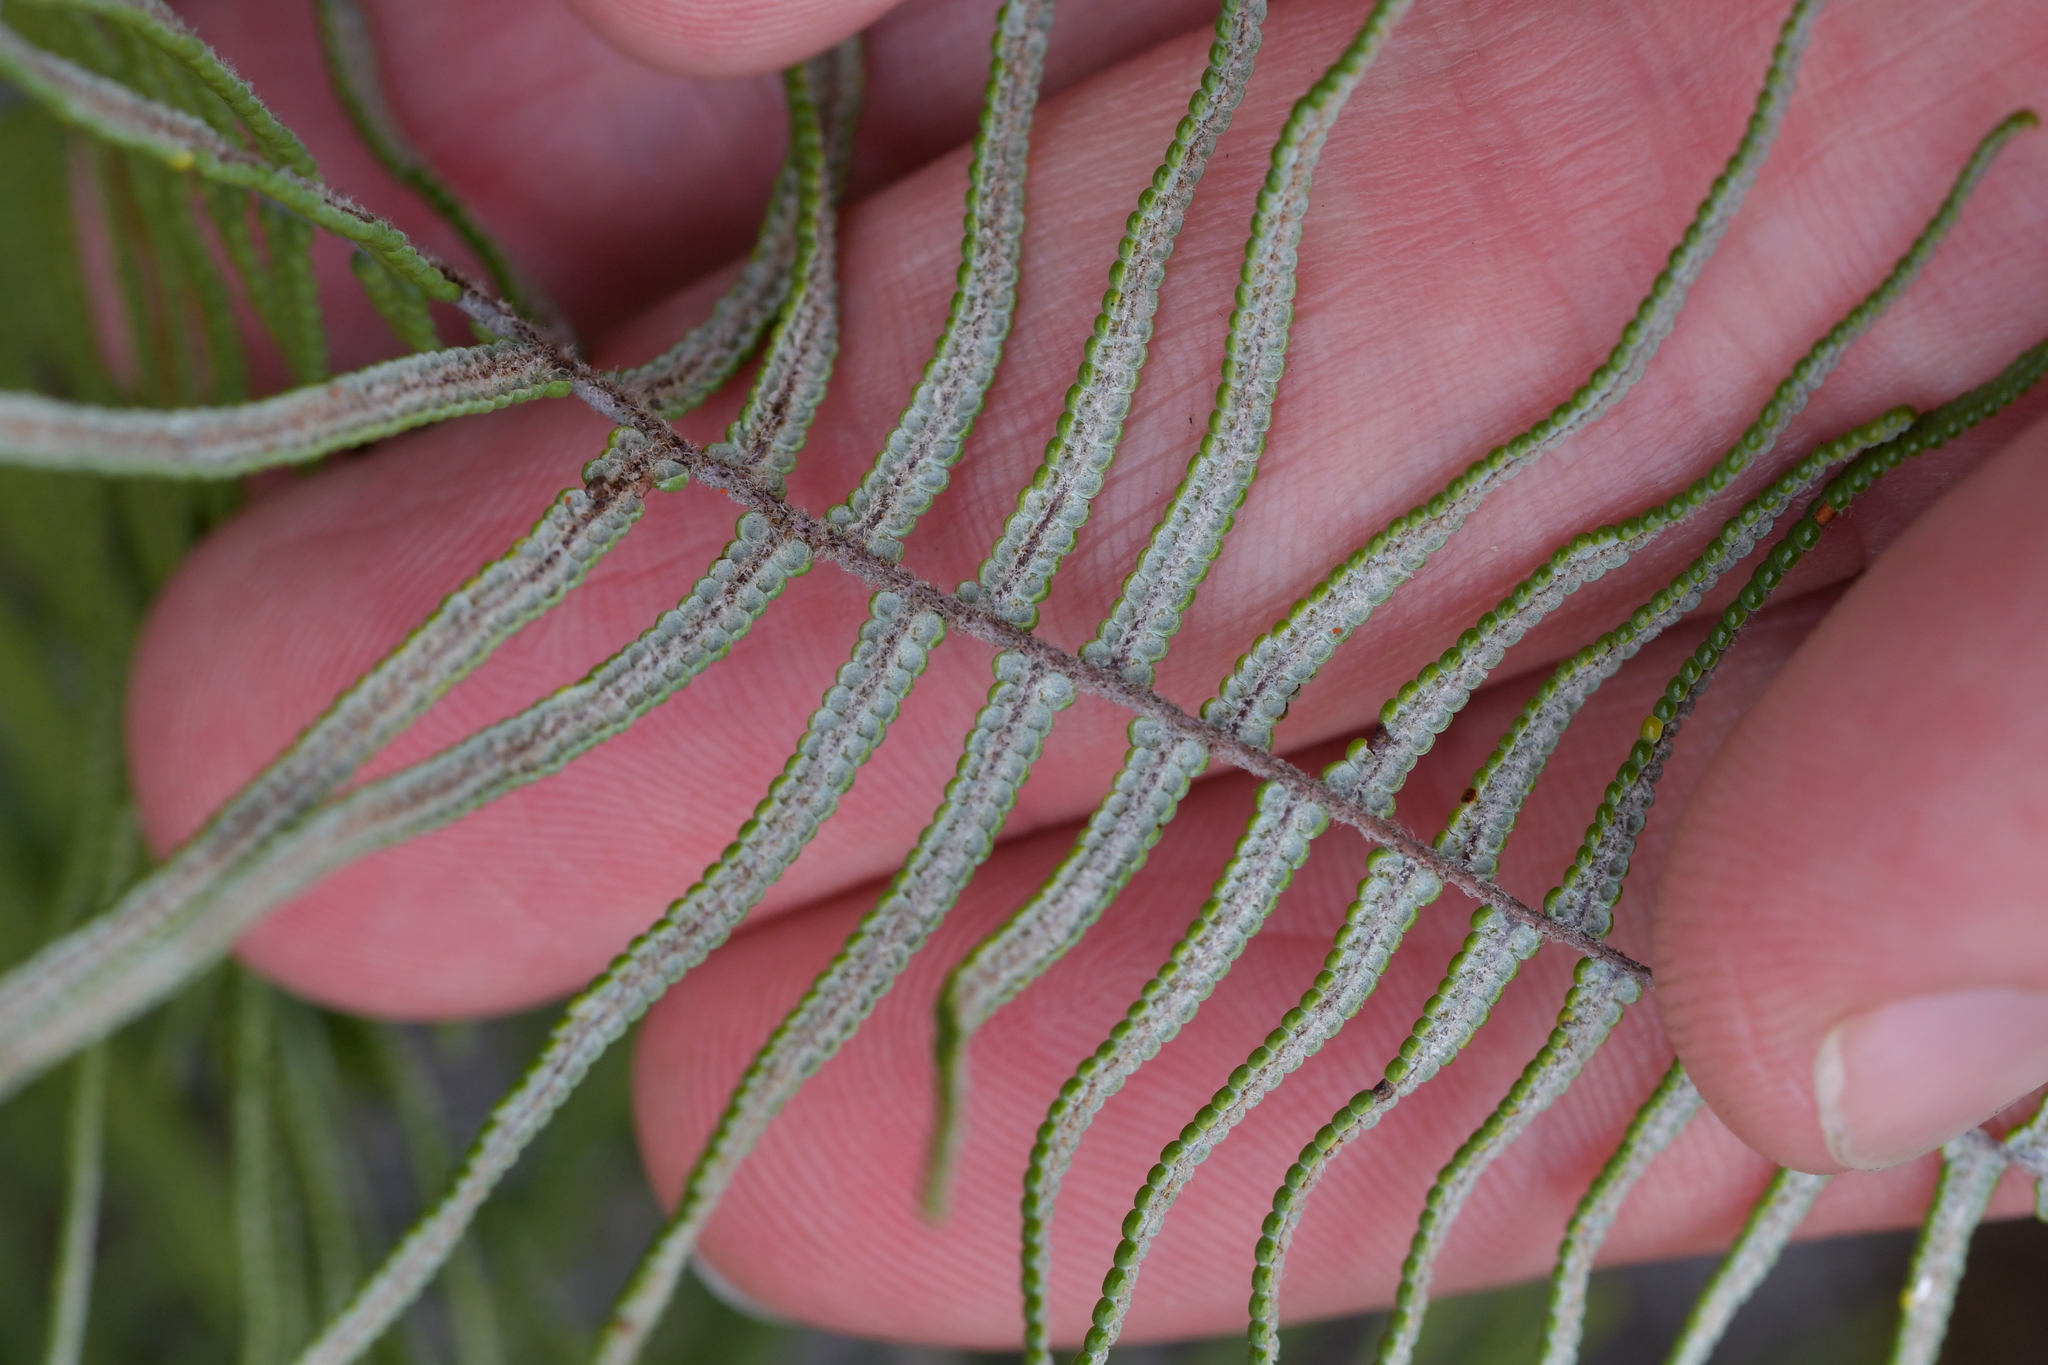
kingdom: Plantae
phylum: Tracheophyta
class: Polypodiopsida
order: Gleicheniales
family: Gleicheniaceae
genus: Gleichenia
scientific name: Gleichenia dicarpa
